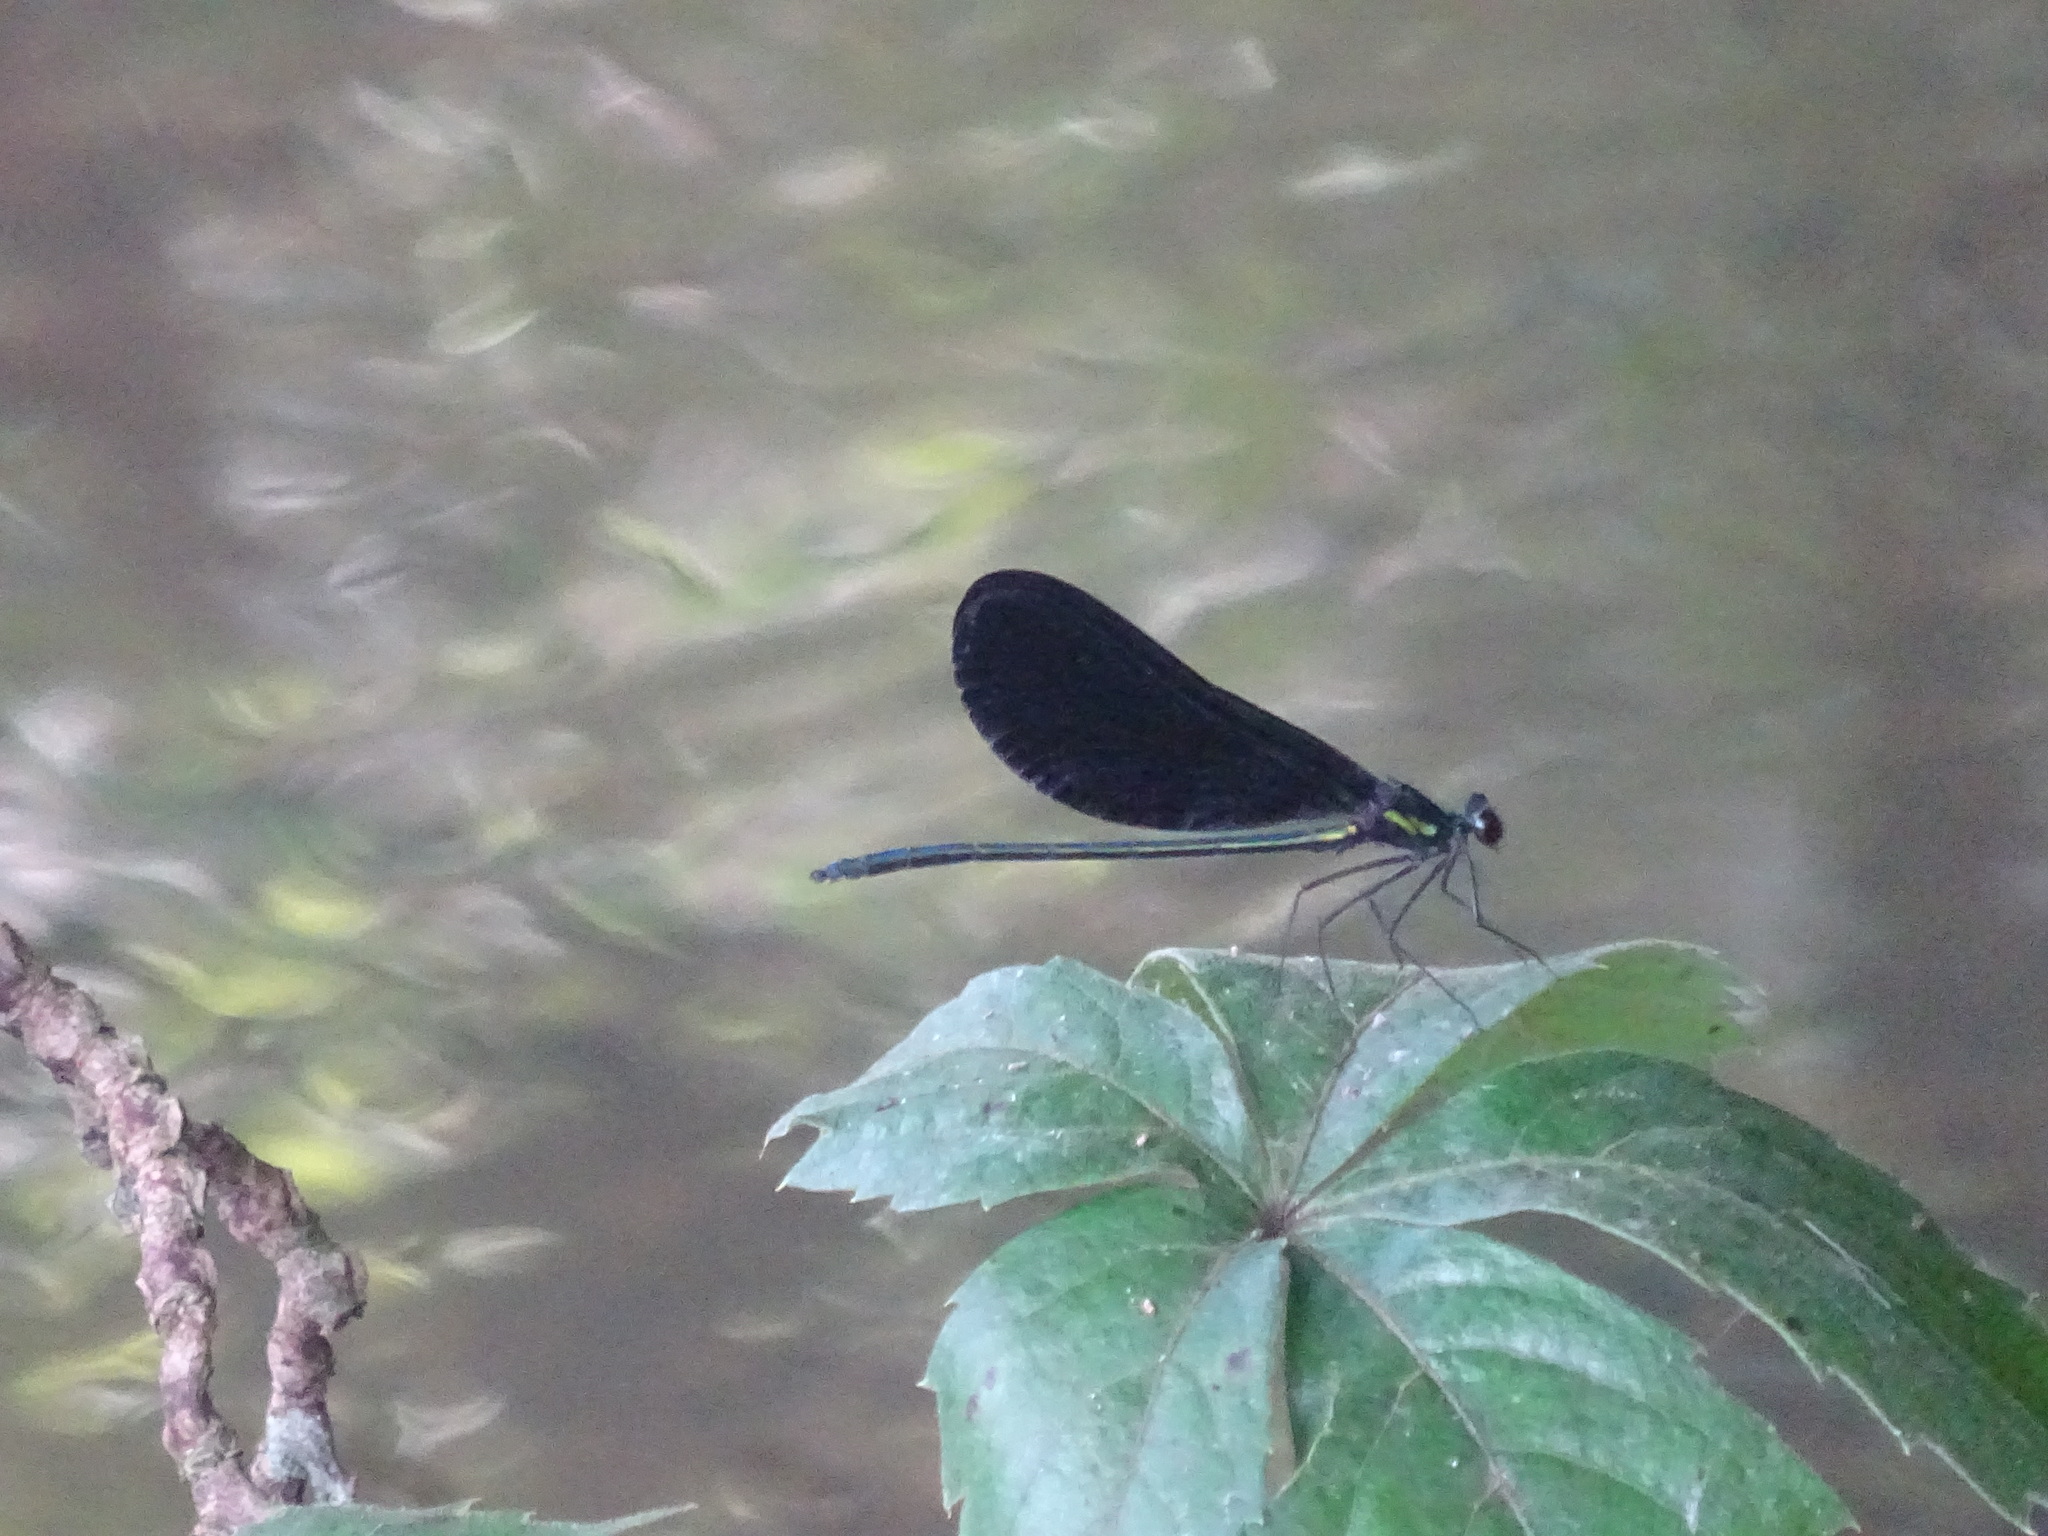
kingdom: Animalia
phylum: Arthropoda
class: Insecta
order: Odonata
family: Calopterygidae
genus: Calopteryx
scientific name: Calopteryx maculata
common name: Ebony jewelwing
